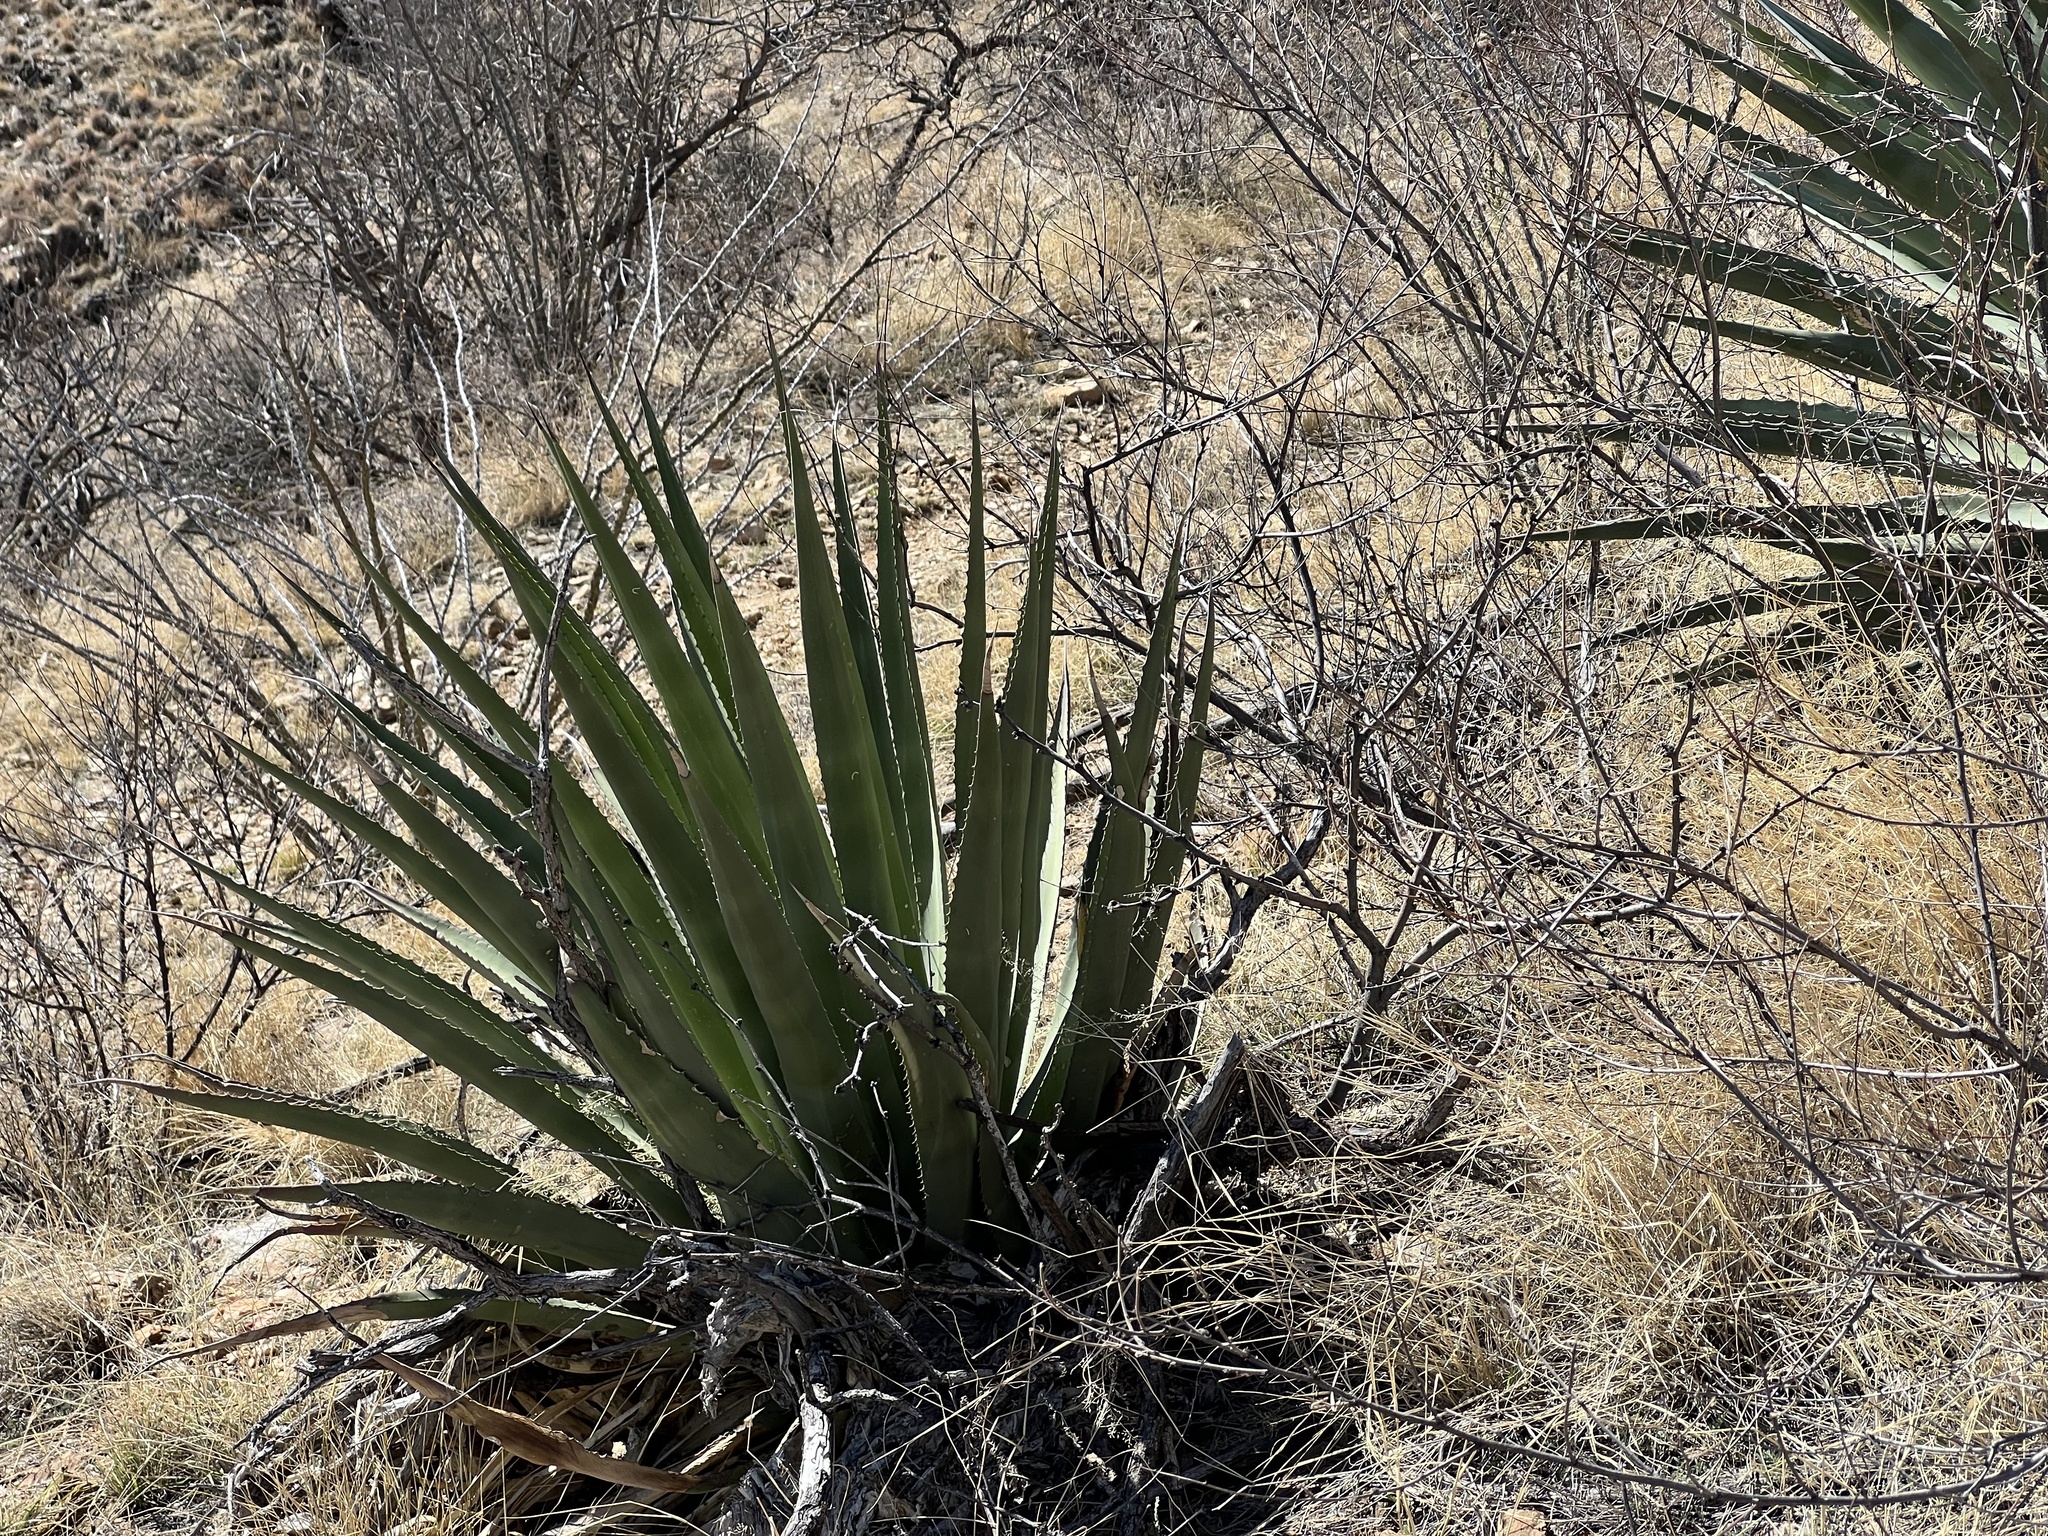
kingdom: Plantae
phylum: Tracheophyta
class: Liliopsida
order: Asparagales
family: Asparagaceae
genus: Agave
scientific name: Agave palmeri
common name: Palmer agave
